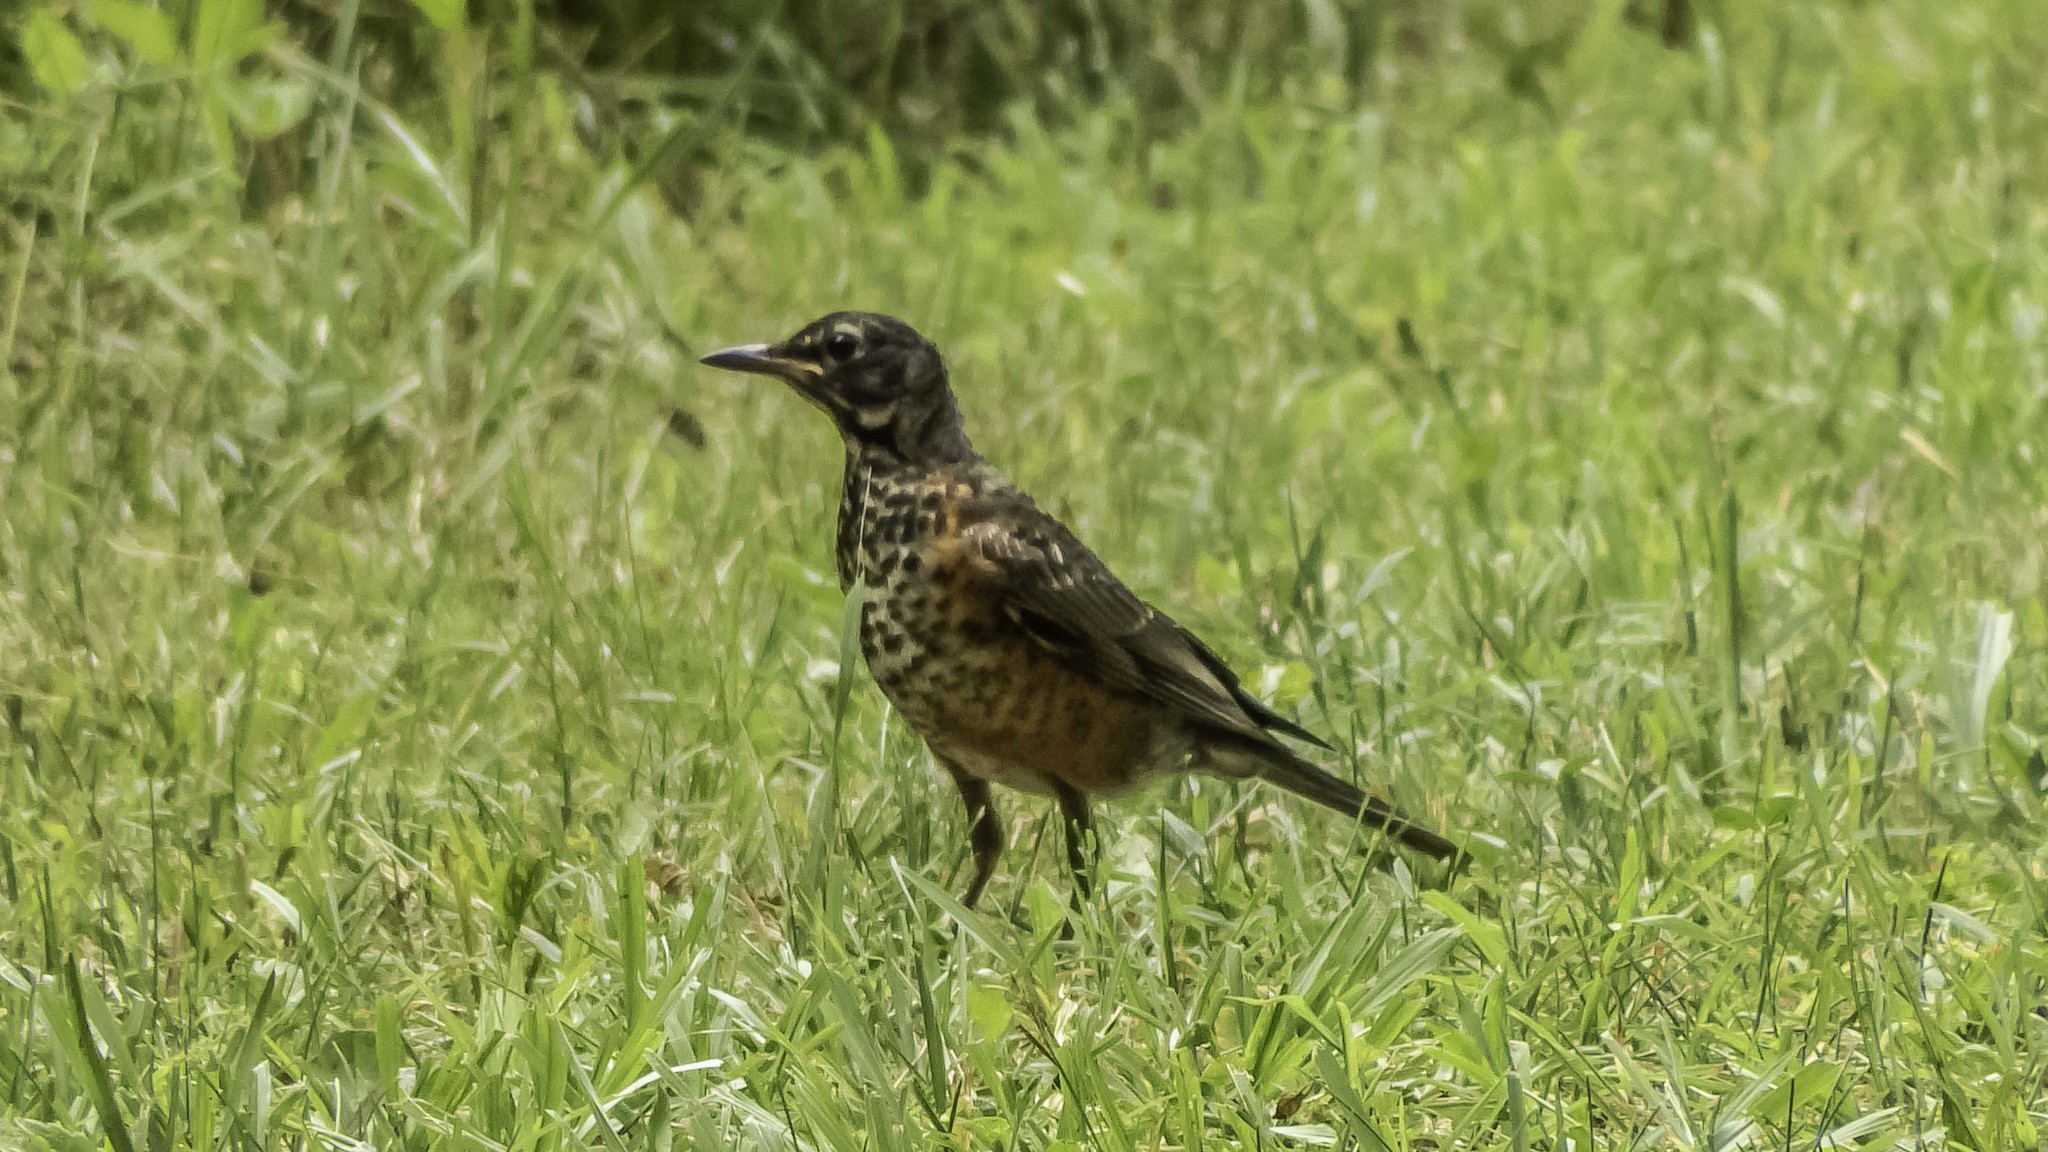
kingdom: Animalia
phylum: Chordata
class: Aves
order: Passeriformes
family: Turdidae
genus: Turdus
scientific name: Turdus migratorius
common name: American robin
